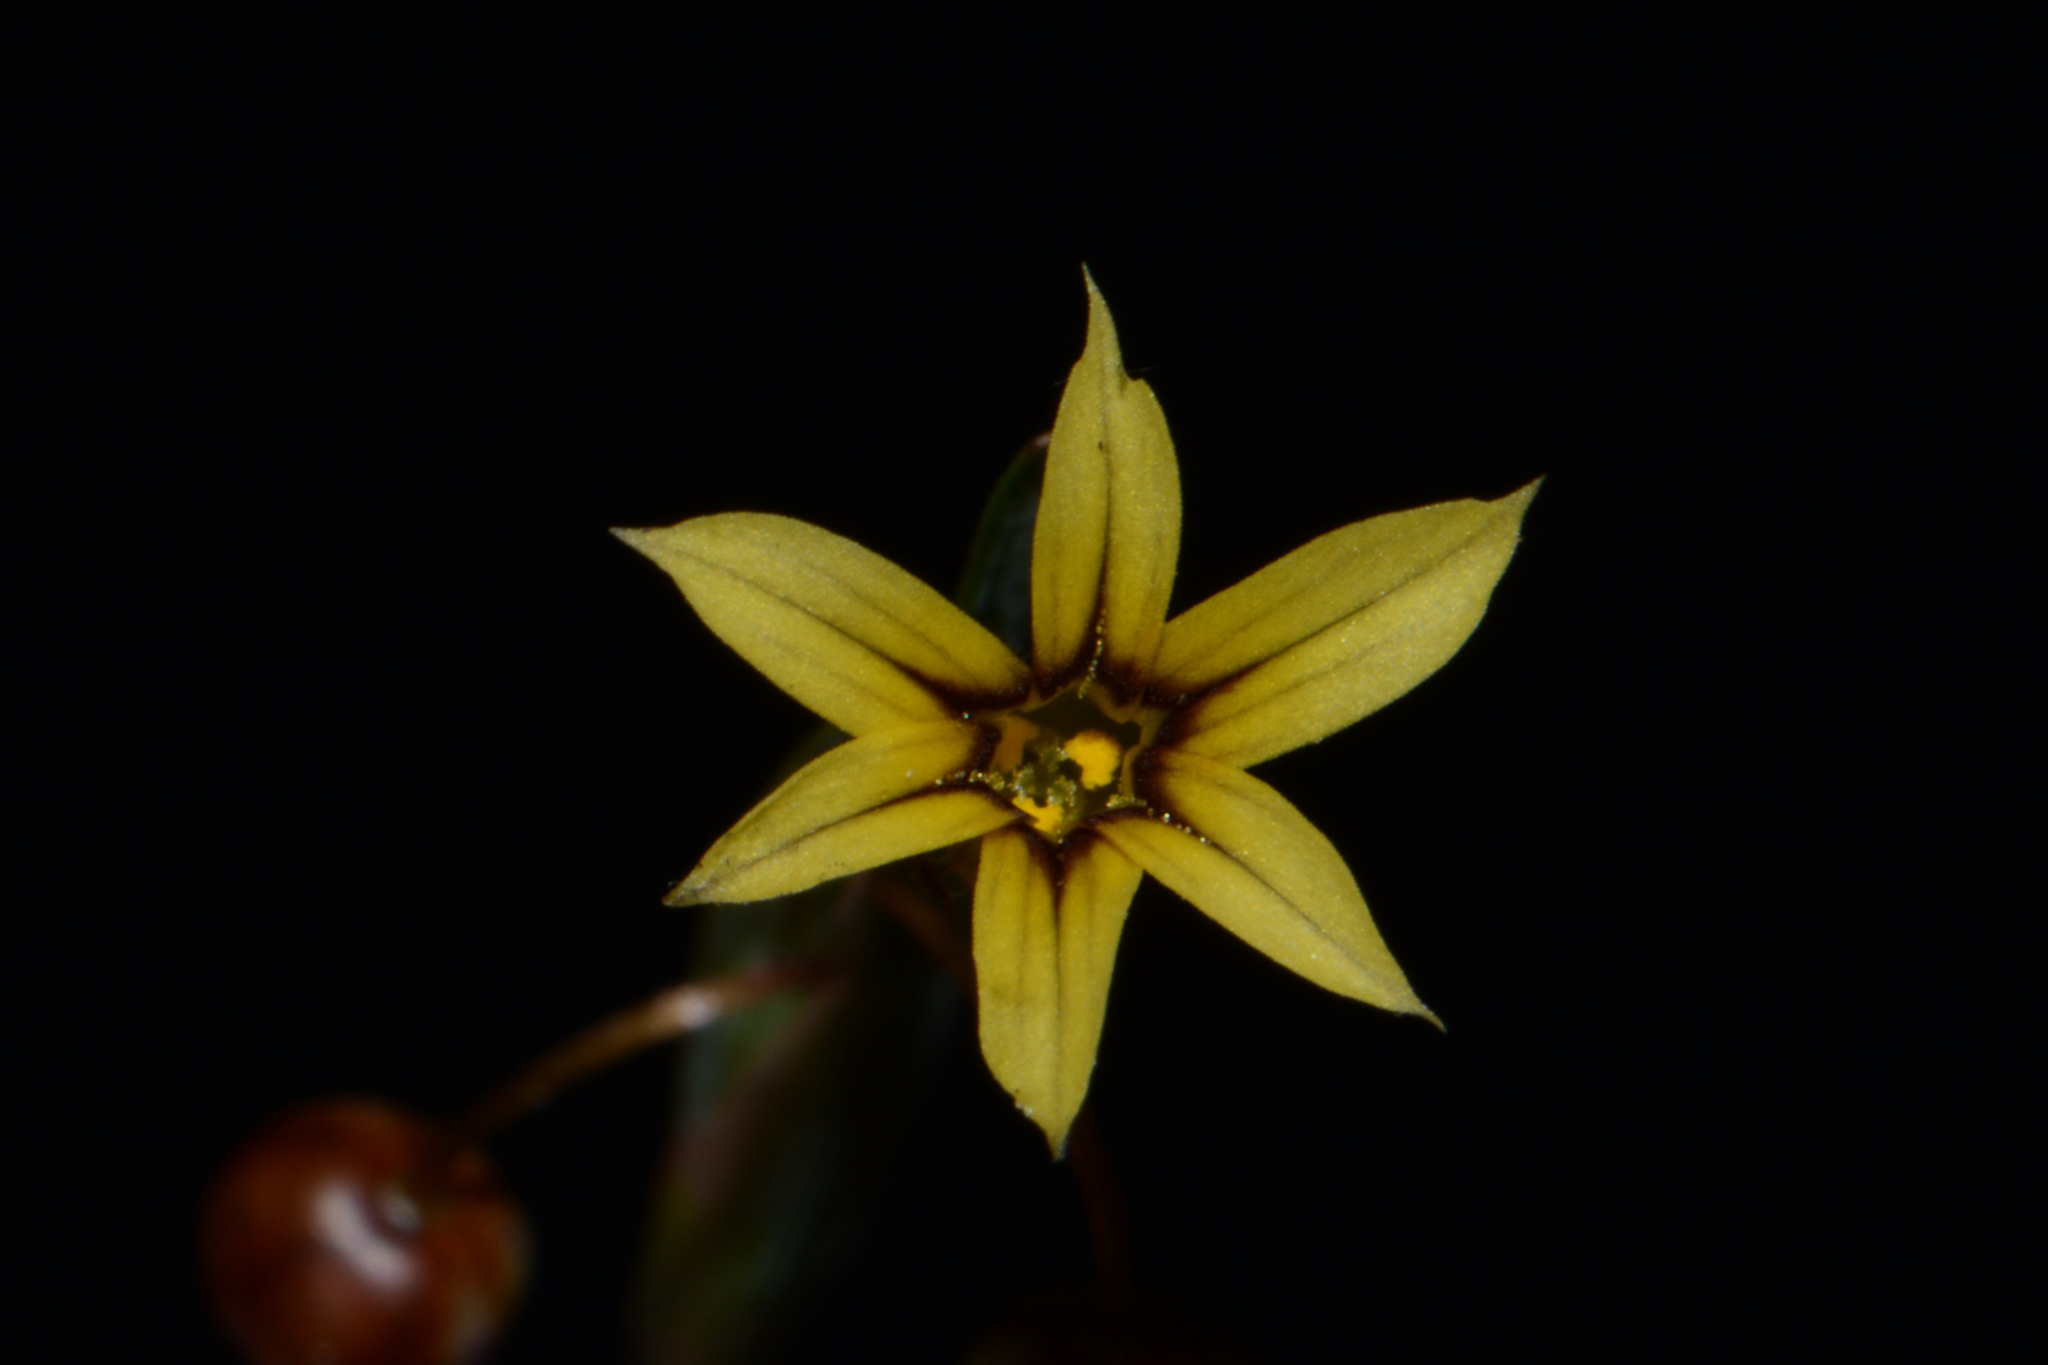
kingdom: Plantae
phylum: Tracheophyta
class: Liliopsida
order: Asparagales
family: Iridaceae
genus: Sisyrinchium
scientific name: Sisyrinchium micranthum
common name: Bermuda pigroot
